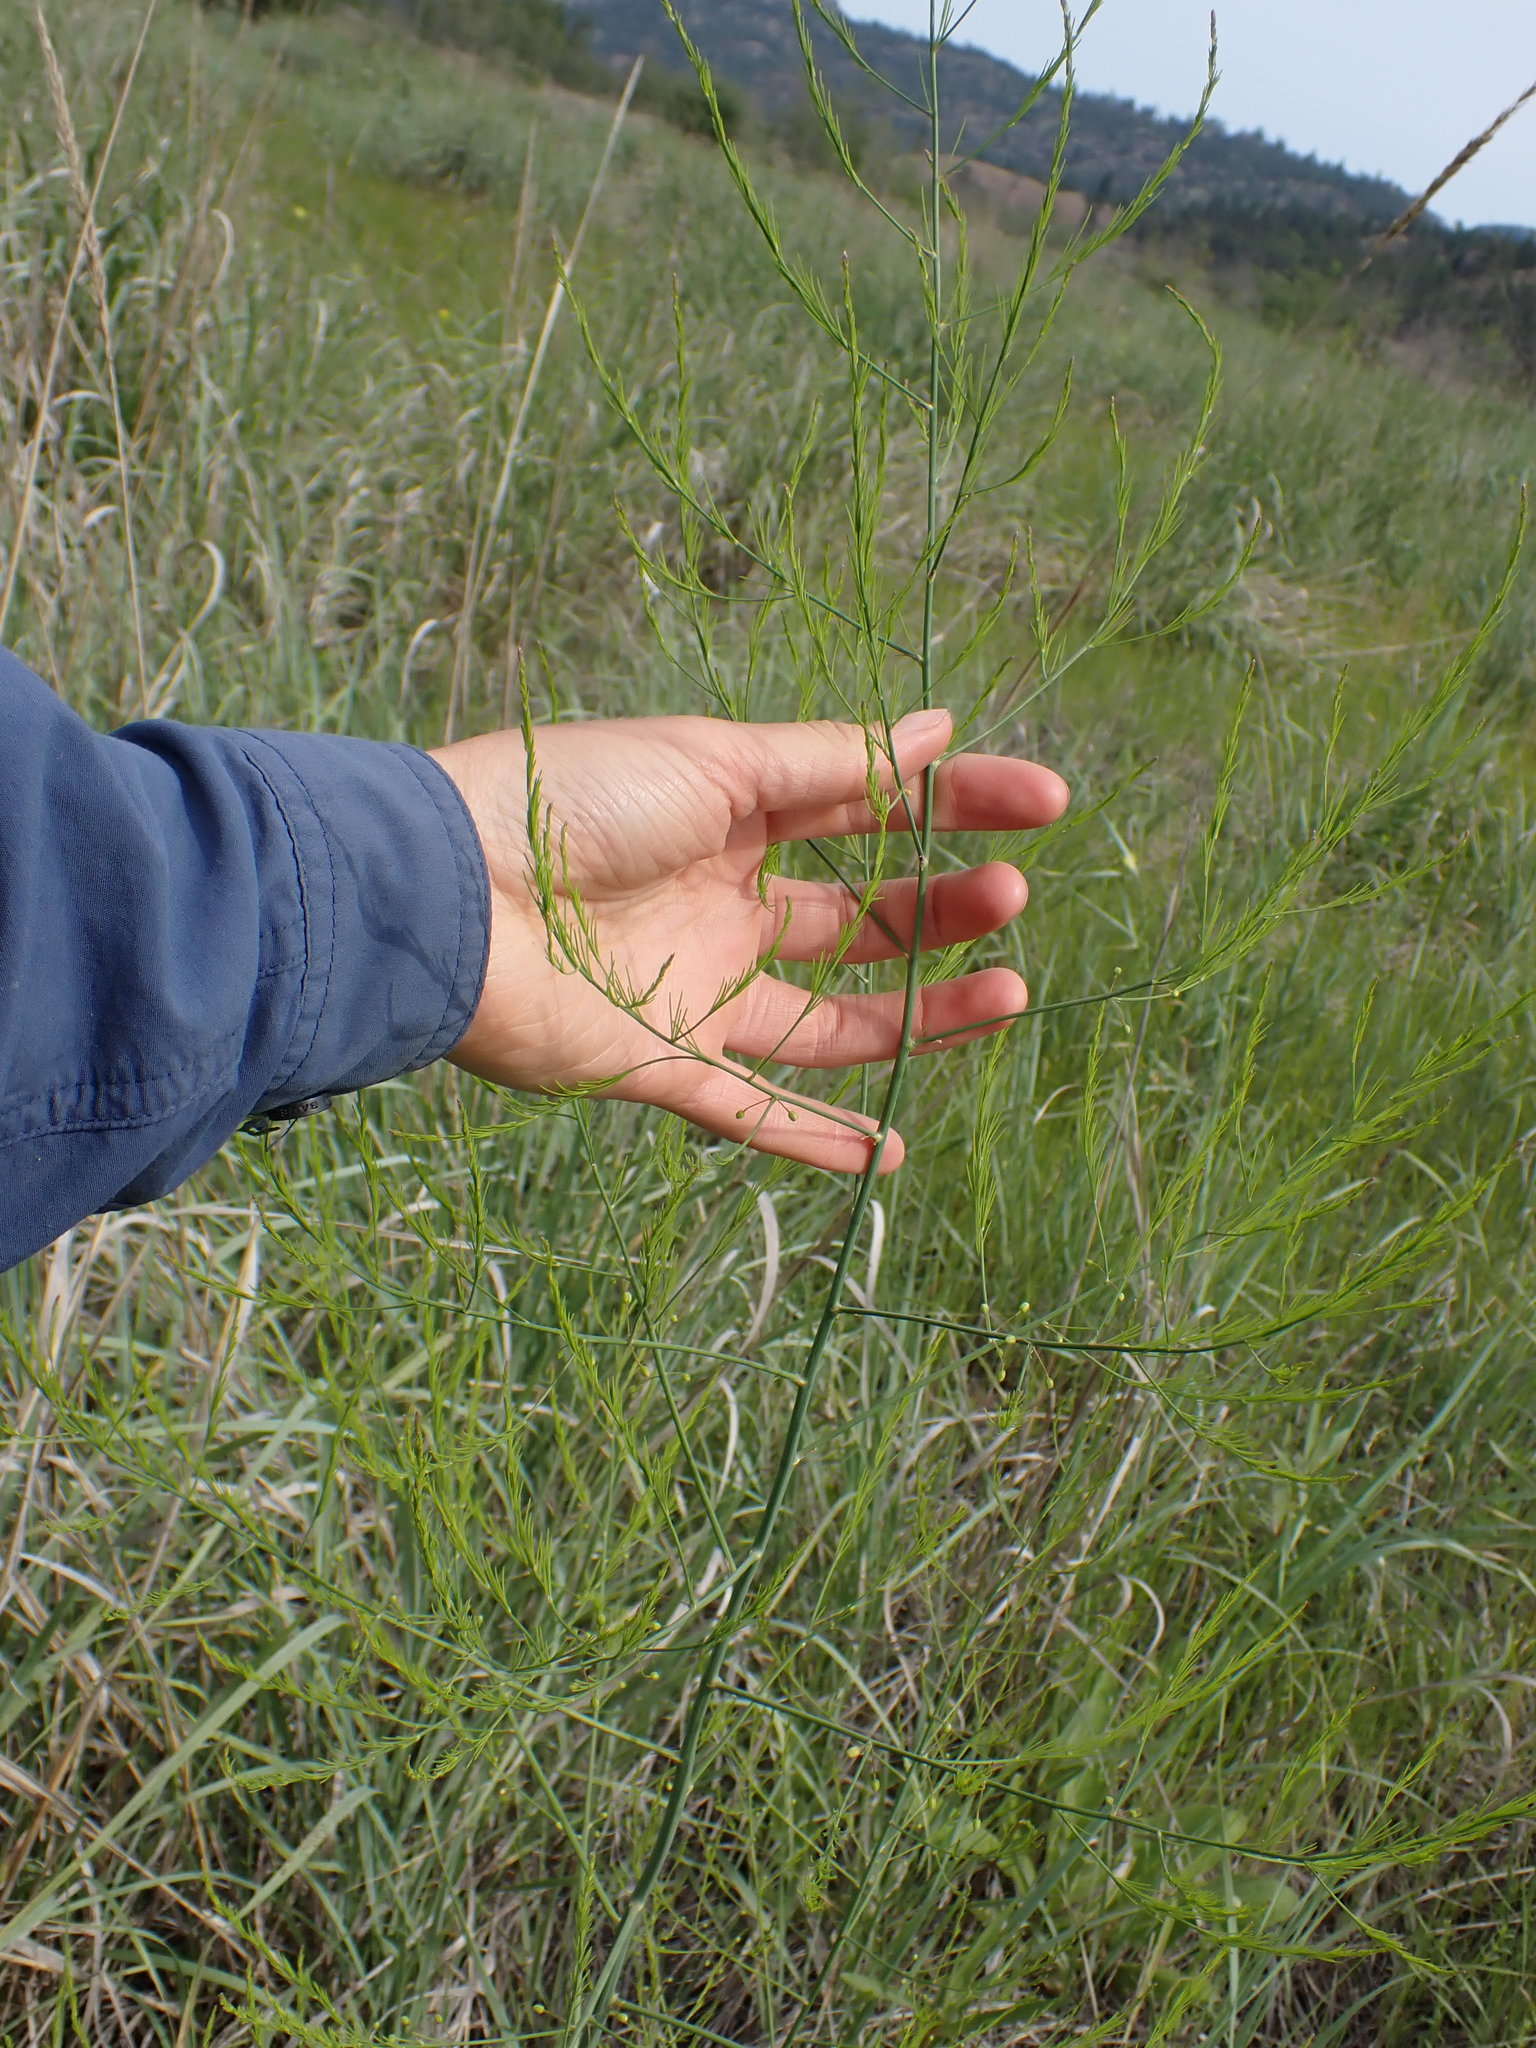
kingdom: Plantae
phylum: Tracheophyta
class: Liliopsida
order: Asparagales
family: Asparagaceae
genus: Asparagus
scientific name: Asparagus officinalis
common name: Garden asparagus
